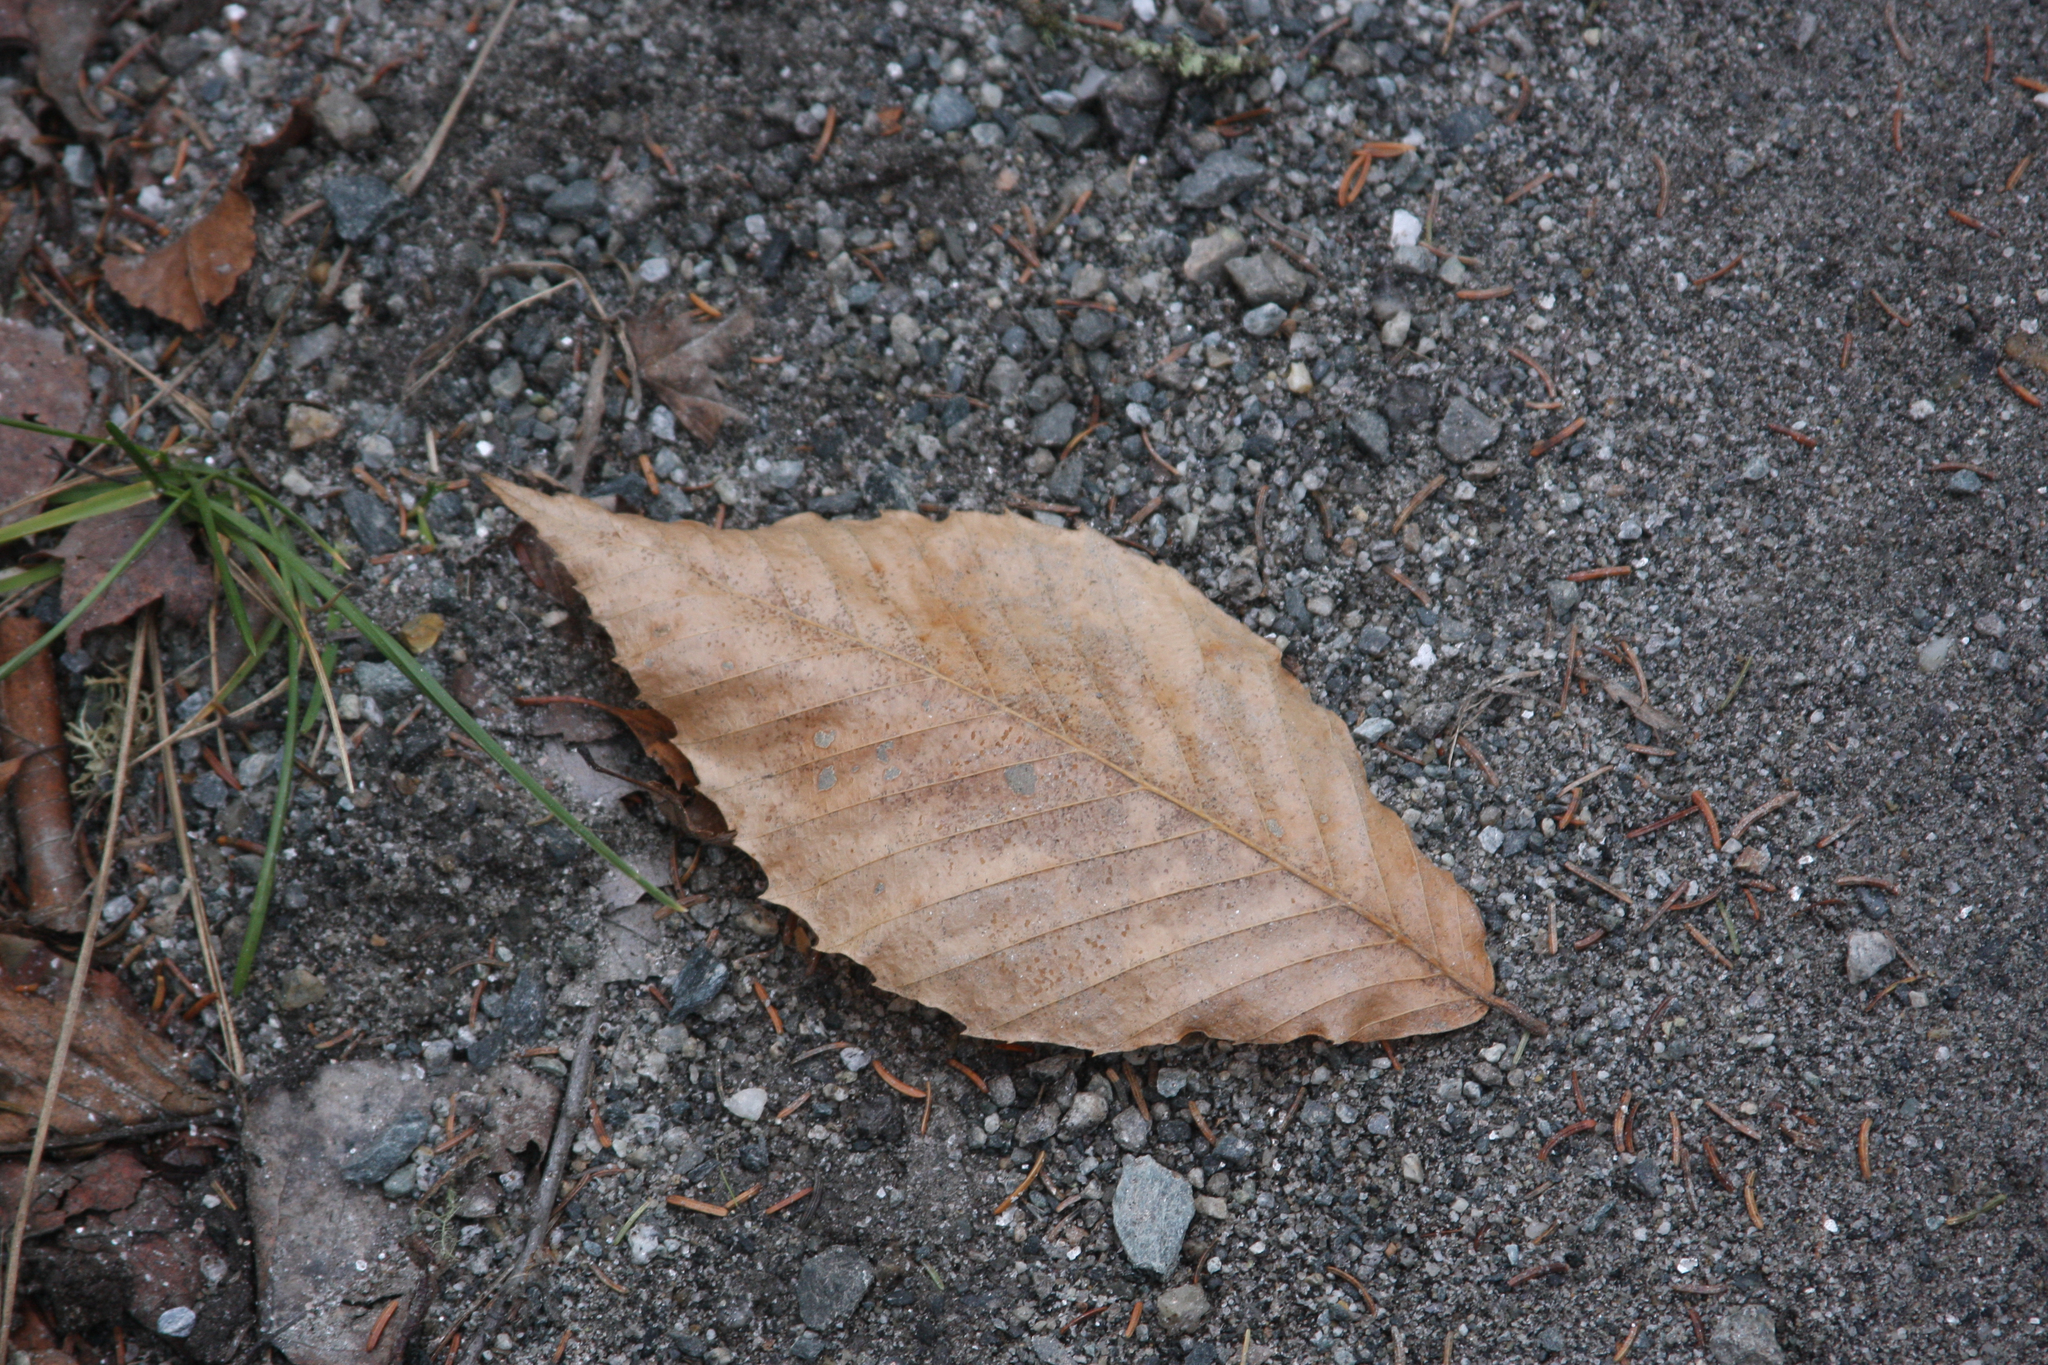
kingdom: Plantae
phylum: Tracheophyta
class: Magnoliopsida
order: Fagales
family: Fagaceae
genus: Fagus
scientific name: Fagus grandifolia
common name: American beech
